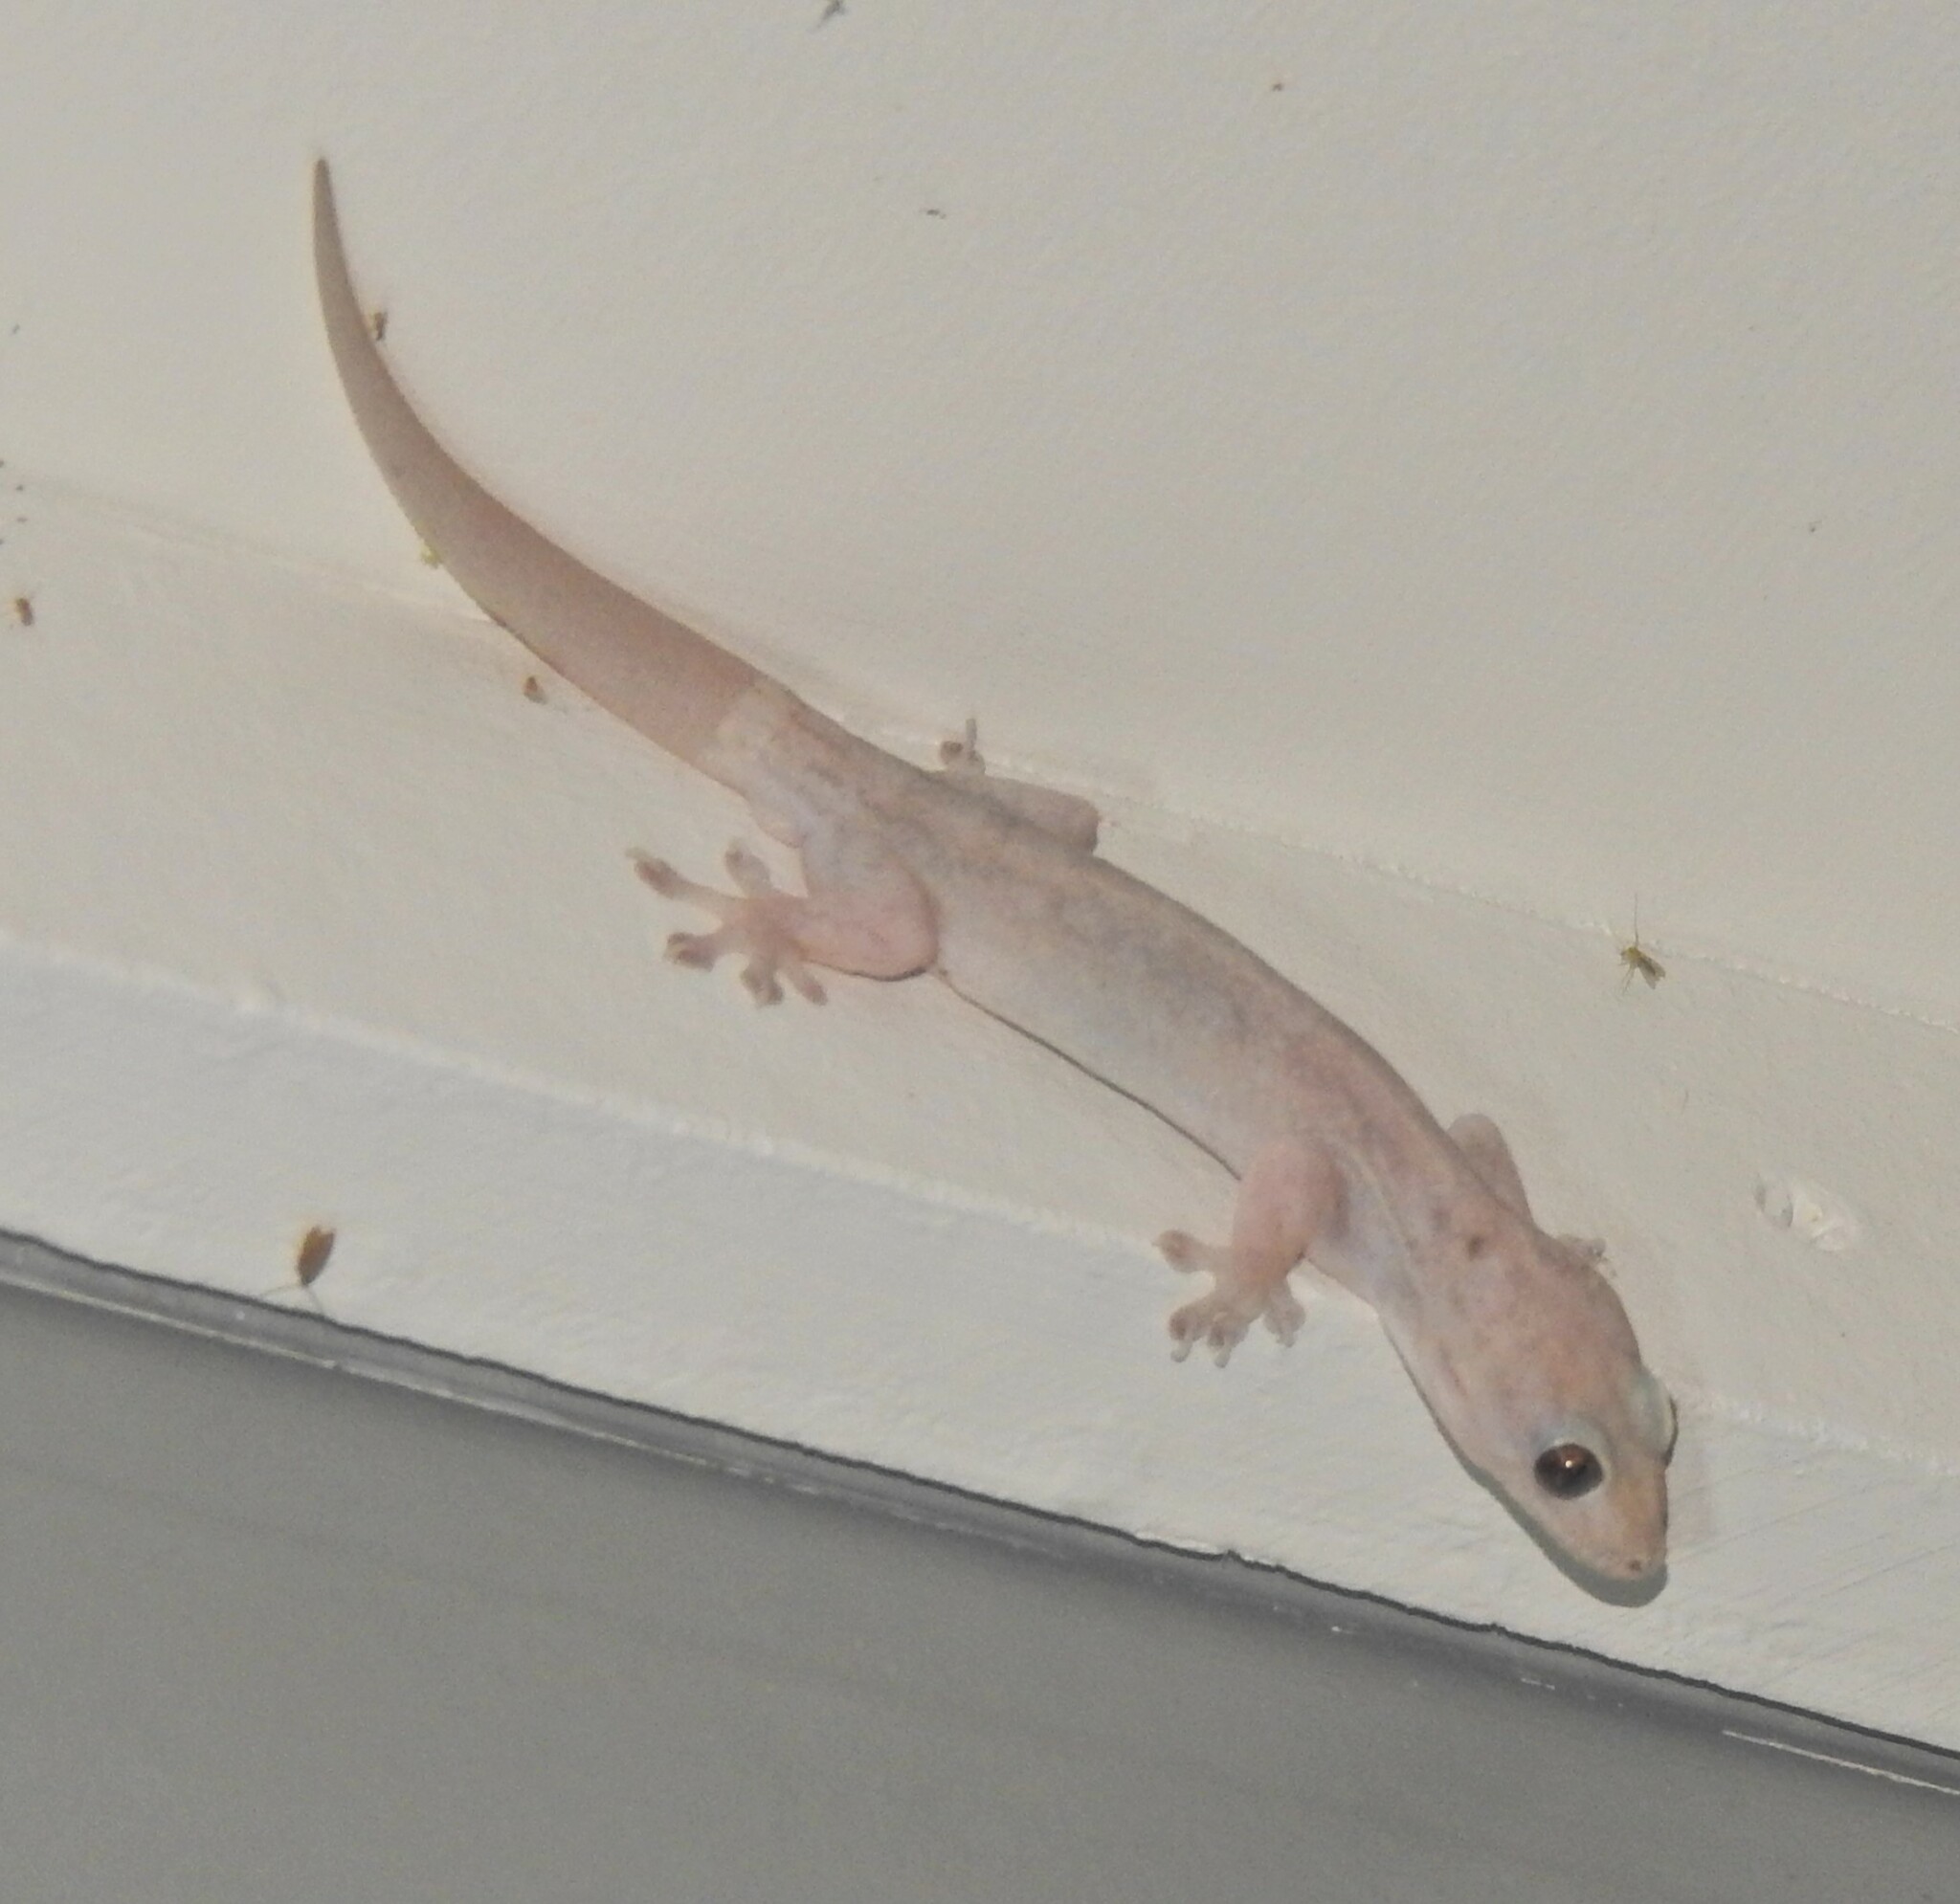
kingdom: Animalia
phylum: Chordata
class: Squamata
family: Gekkonidae
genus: Gehyra
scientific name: Gehyra dubia
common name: Dubious dtella
